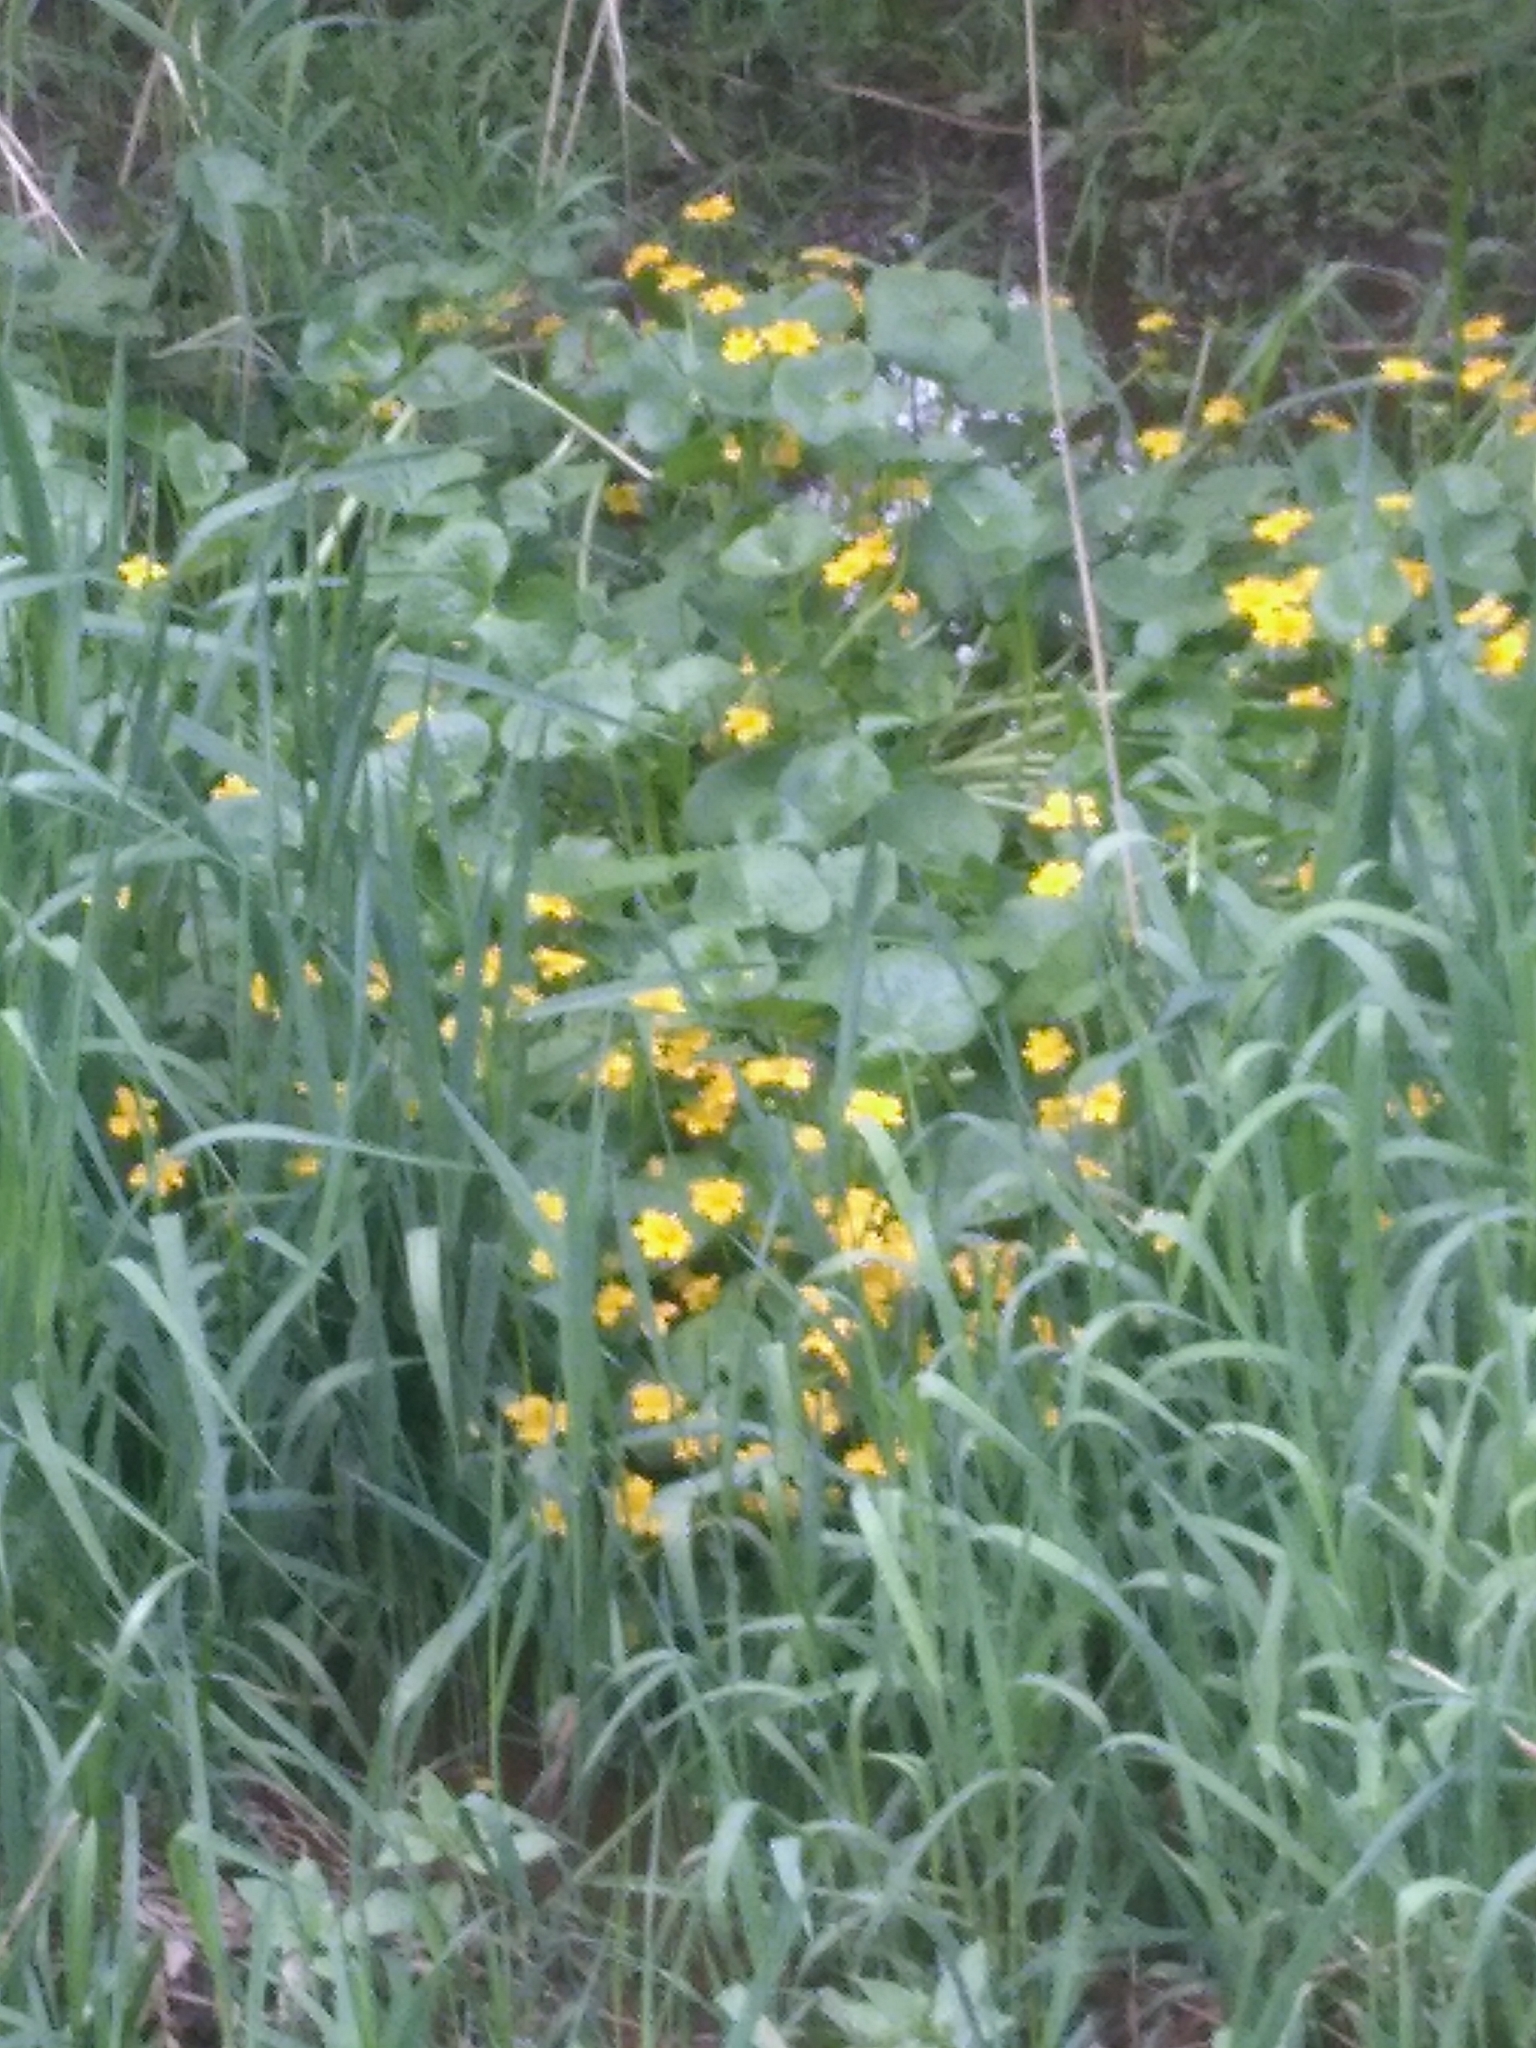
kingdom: Plantae
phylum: Tracheophyta
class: Magnoliopsida
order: Ranunculales
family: Ranunculaceae
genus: Caltha
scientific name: Caltha palustris
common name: Marsh marigold
